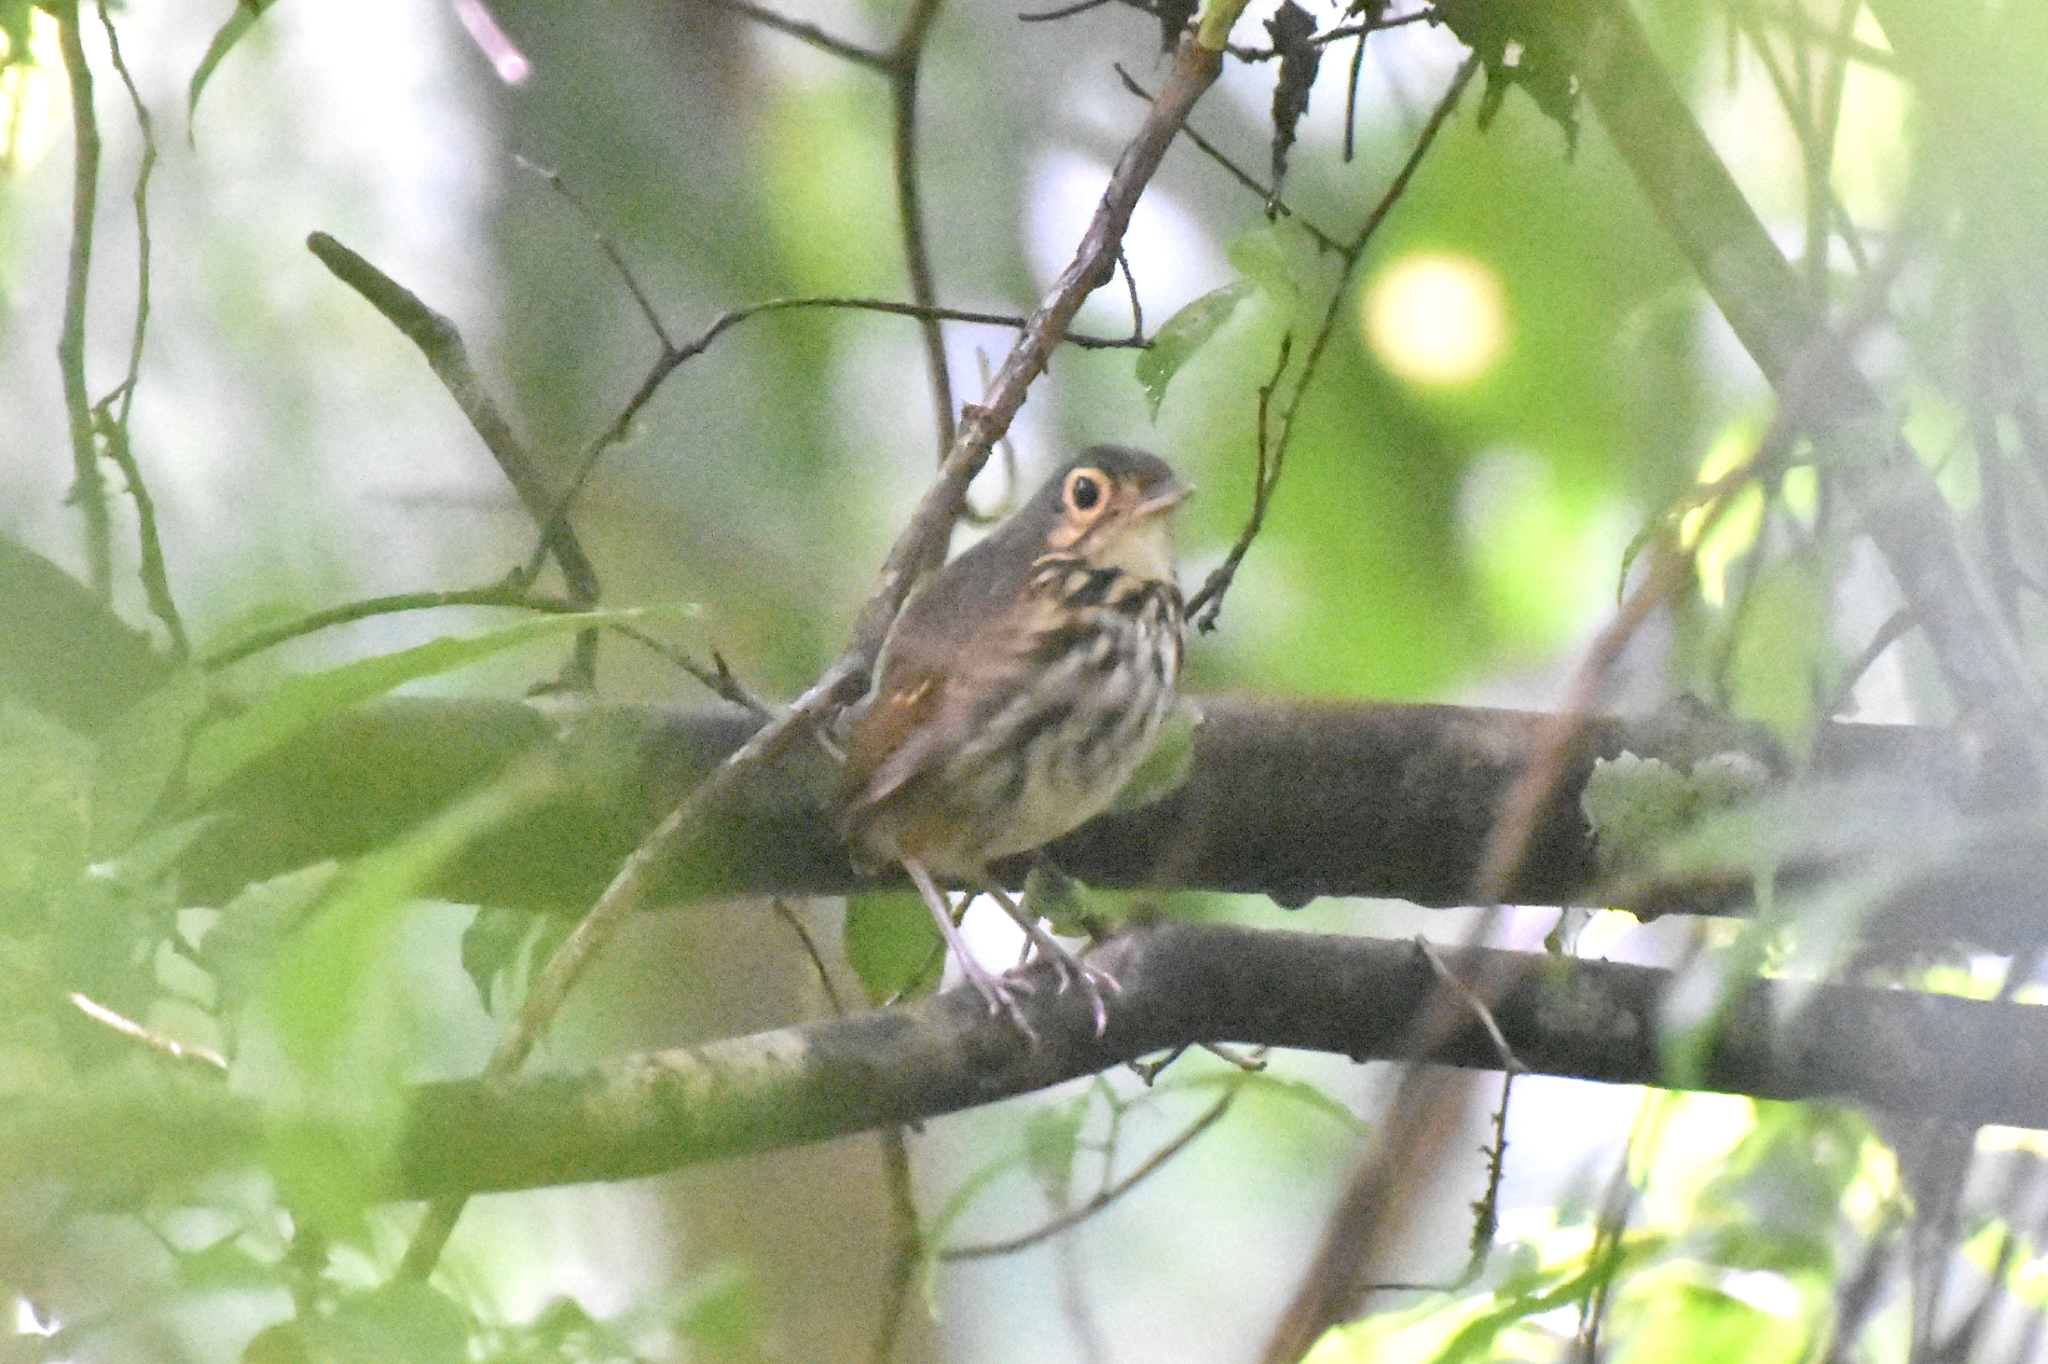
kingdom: Animalia
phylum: Chordata
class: Aves
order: Passeriformes
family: Grallariidae
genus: Hylopezus
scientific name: Hylopezus perspicillatus
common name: Streak-chested antpitta
